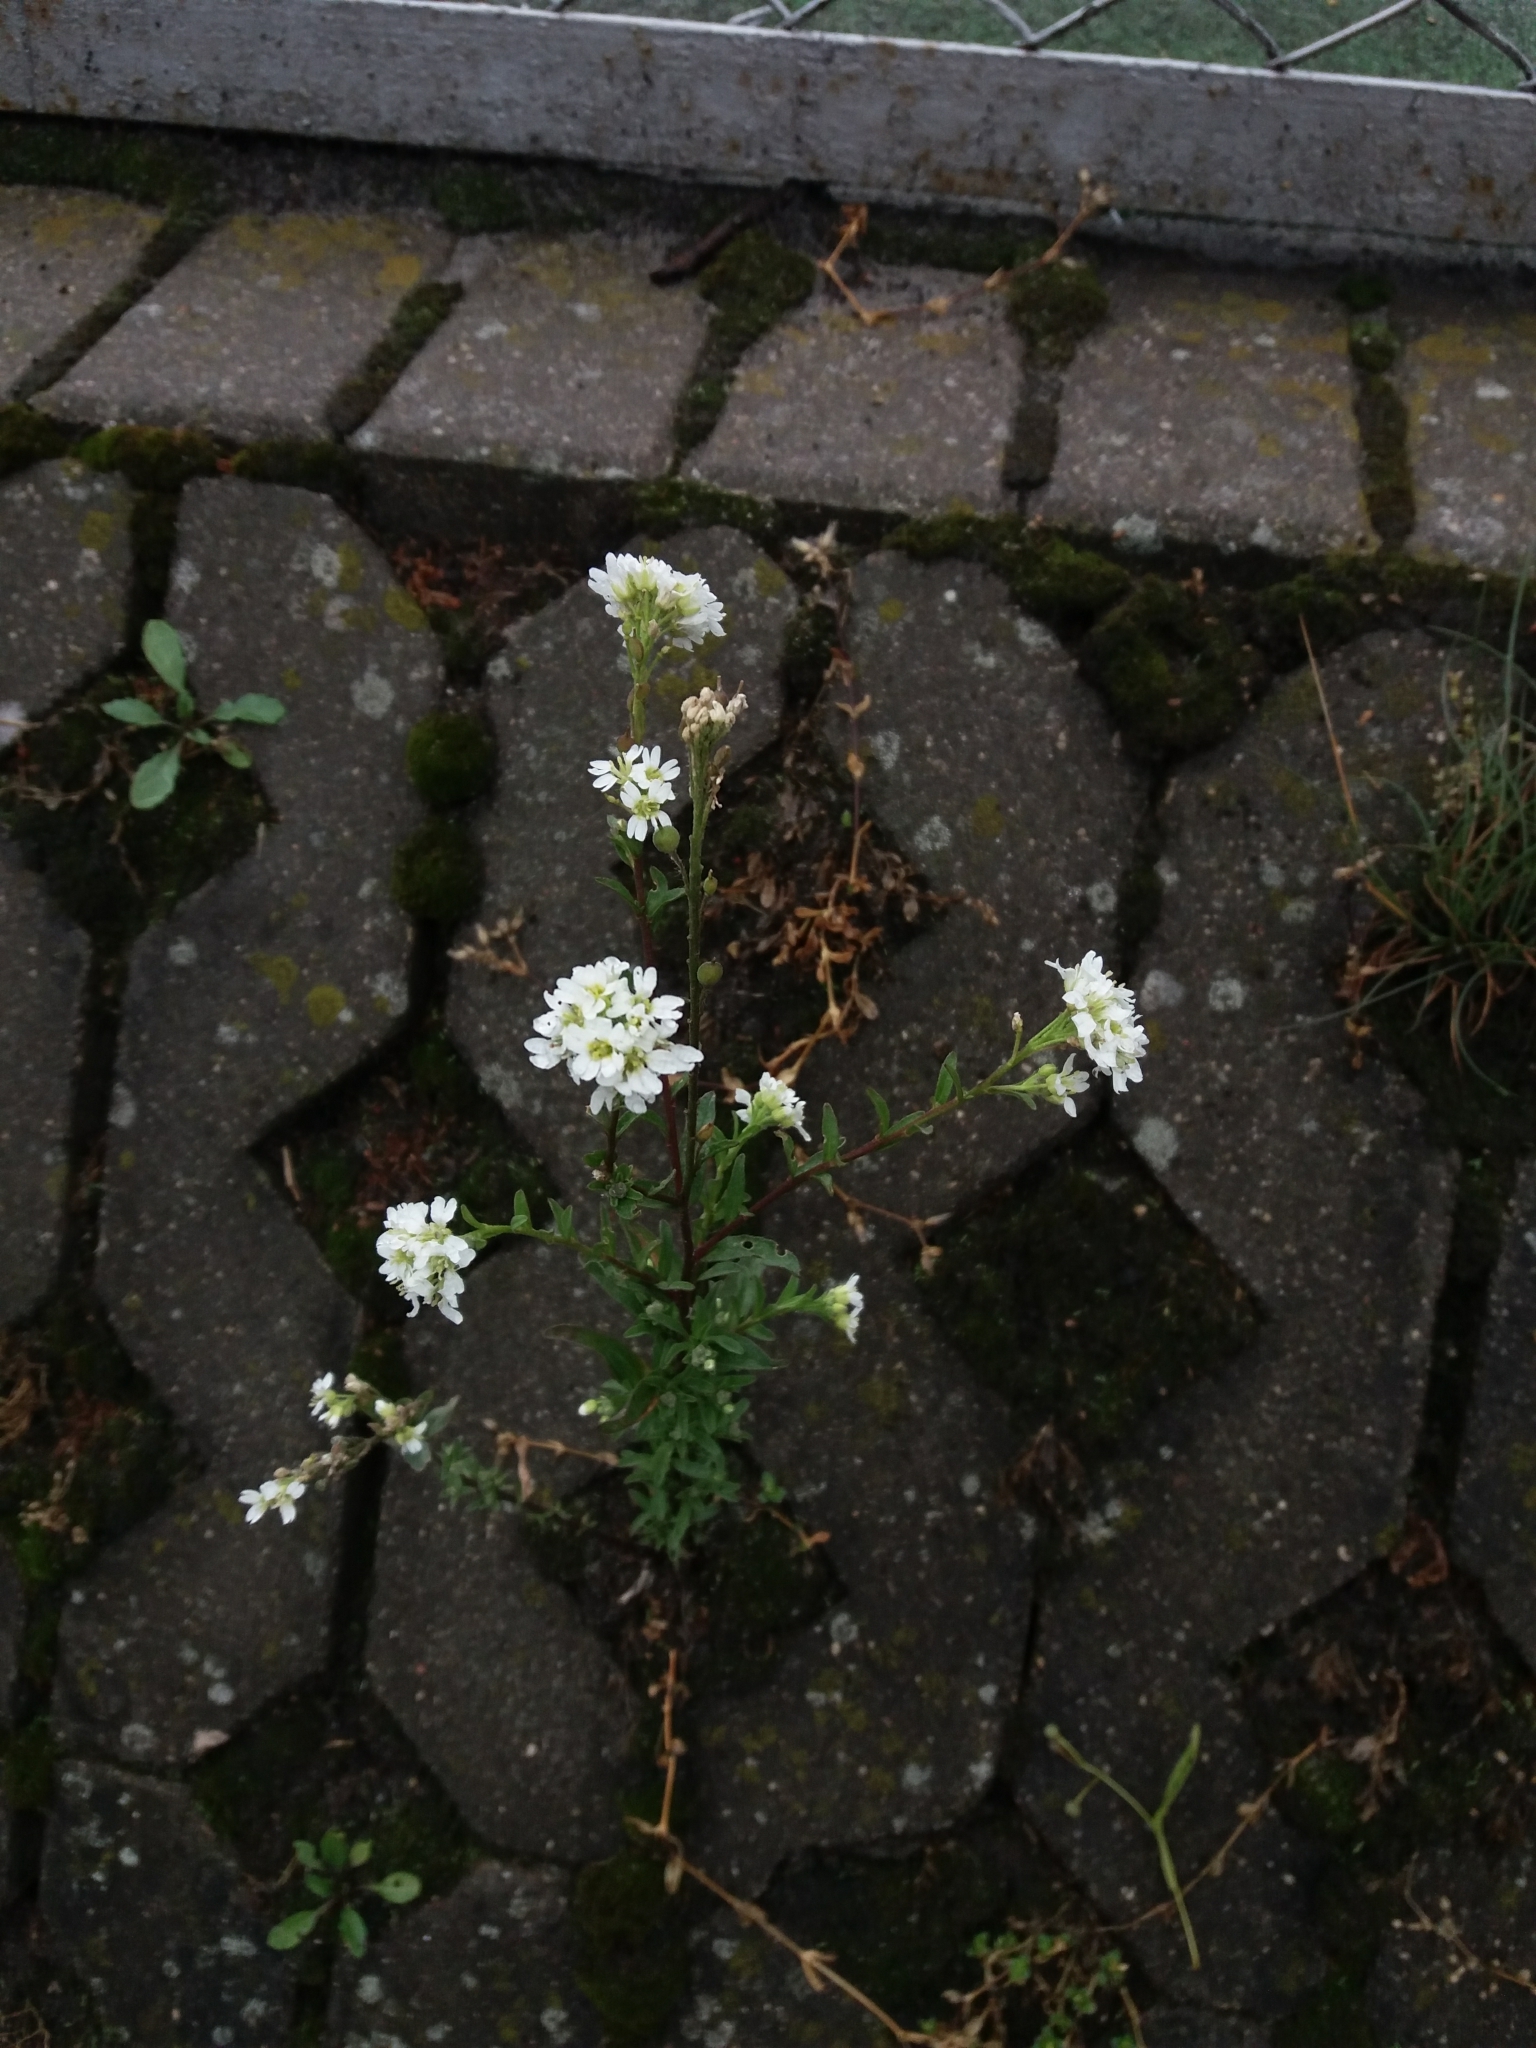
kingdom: Plantae
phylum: Tracheophyta
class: Magnoliopsida
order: Brassicales
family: Brassicaceae
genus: Berteroa
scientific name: Berteroa incana
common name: Hoary alison
